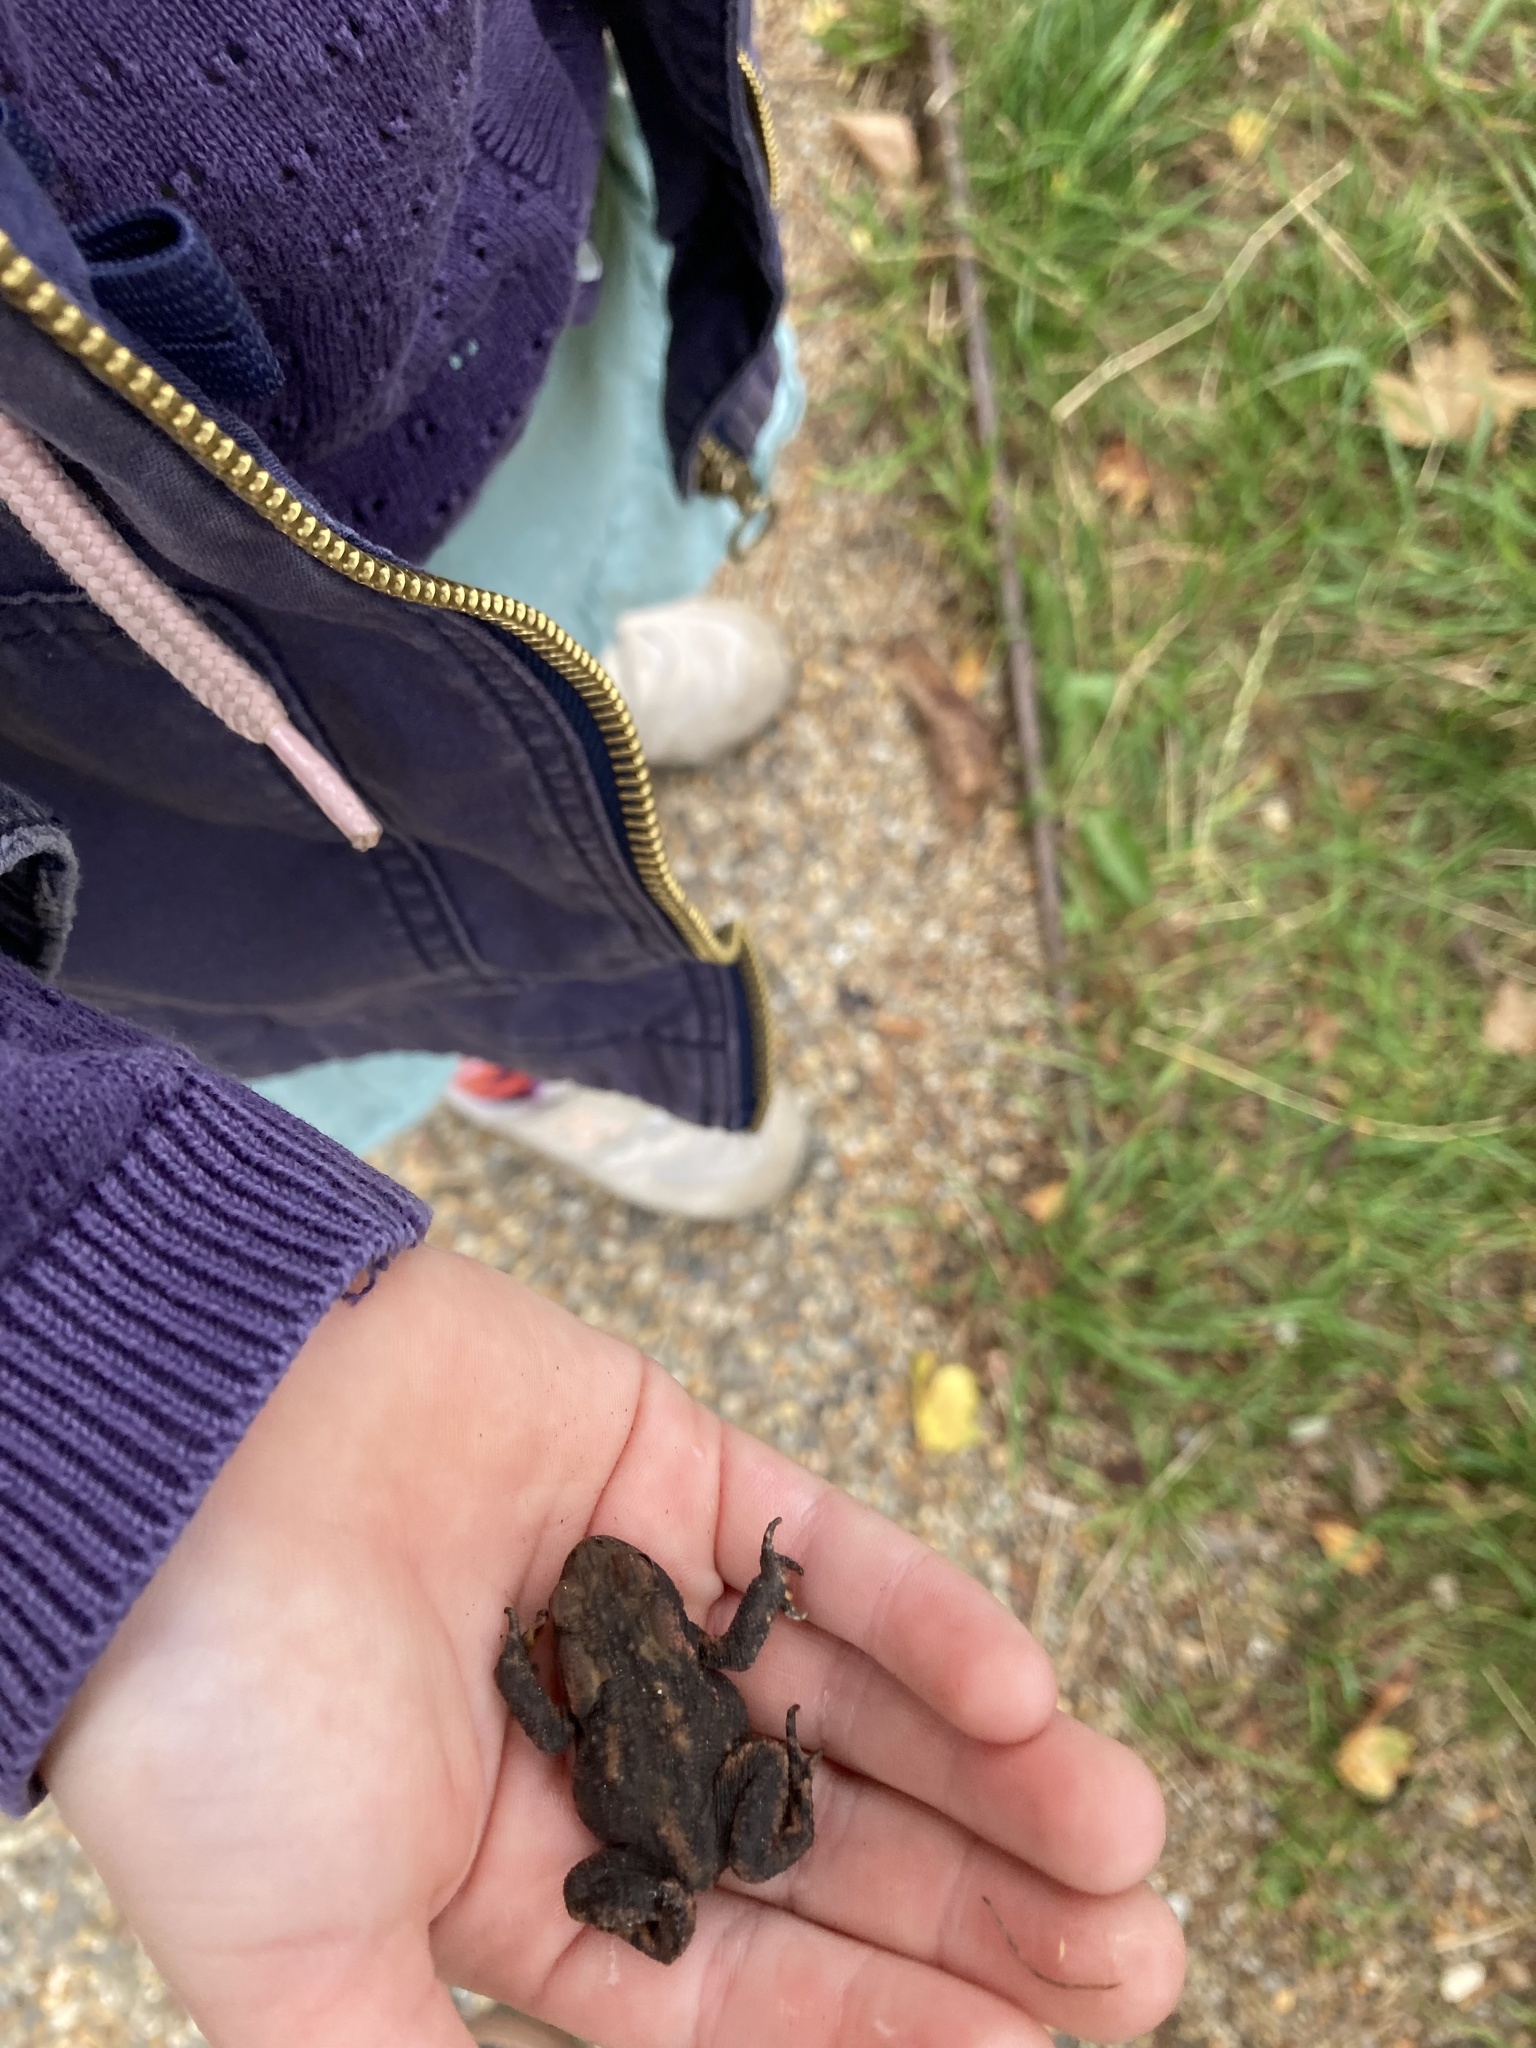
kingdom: Animalia
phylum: Chordata
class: Amphibia
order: Anura
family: Bufonidae
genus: Bufo
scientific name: Bufo bufo
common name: Common toad
